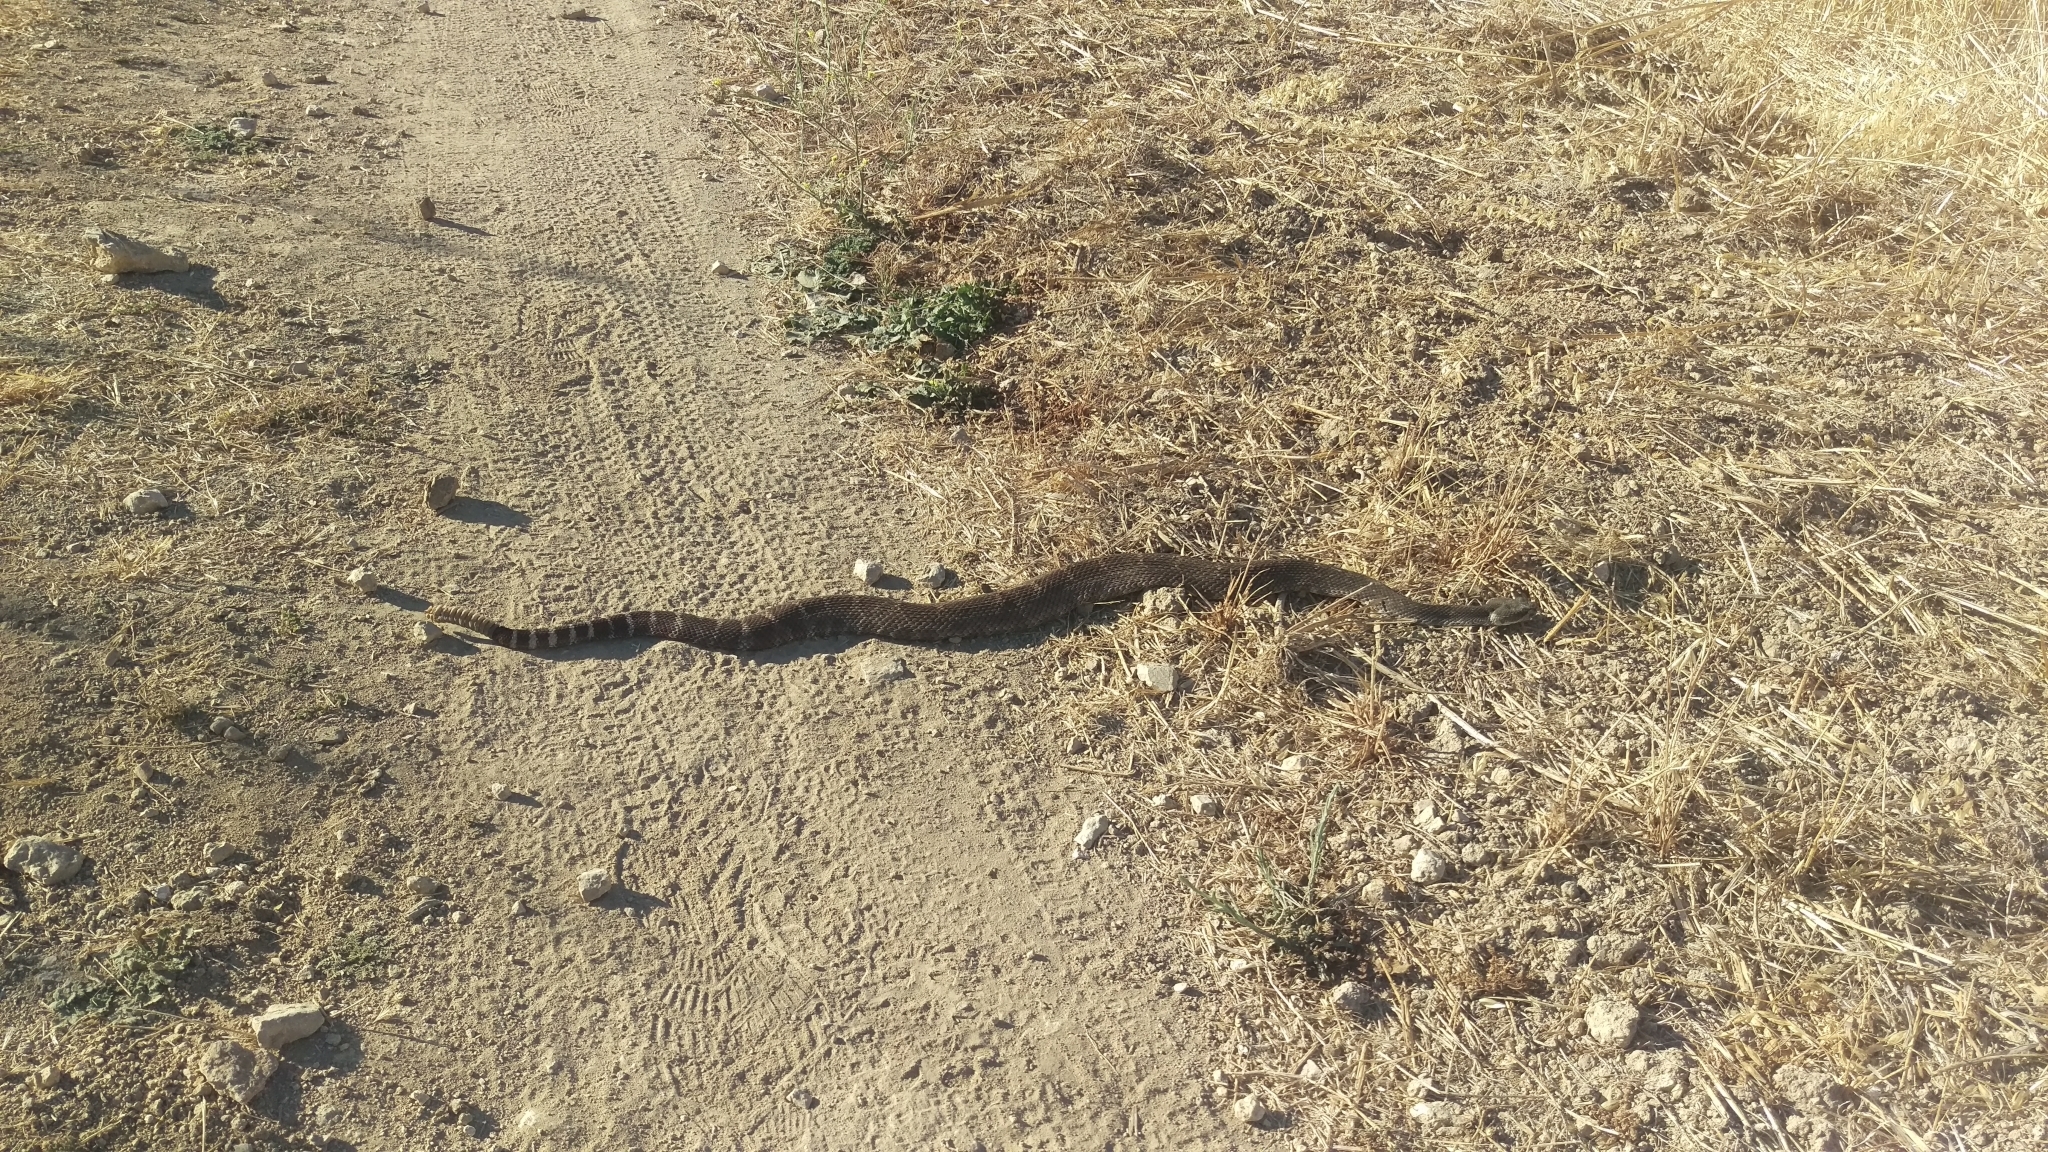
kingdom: Animalia
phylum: Chordata
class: Squamata
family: Viperidae
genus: Crotalus
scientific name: Crotalus oreganus
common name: Abyssus
